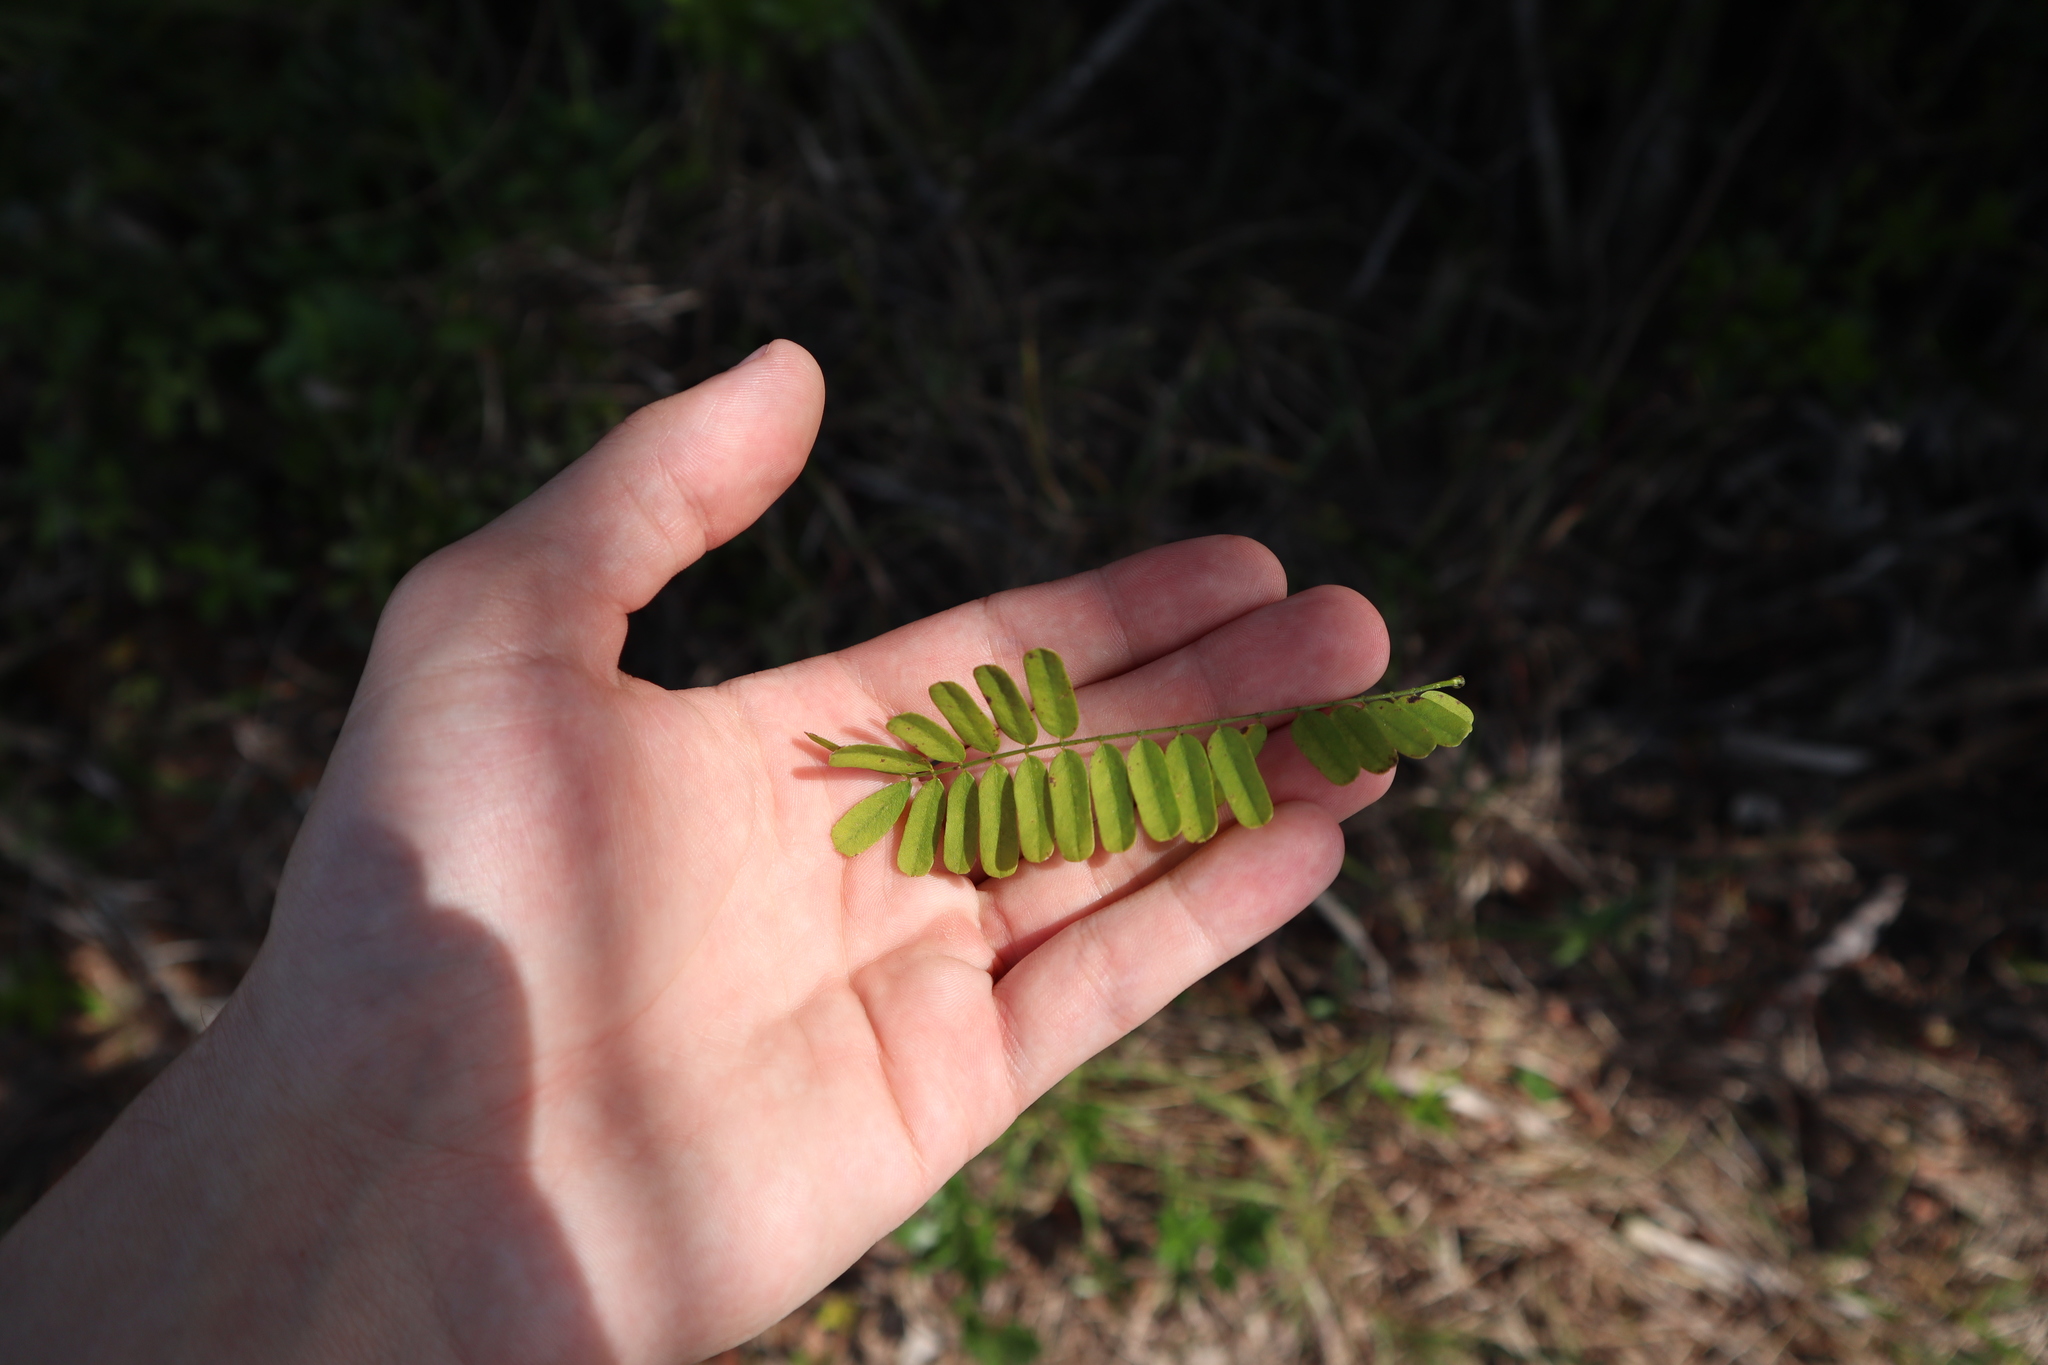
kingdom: Plantae
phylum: Tracheophyta
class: Magnoliopsida
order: Fabales
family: Fabaceae
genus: Abrus
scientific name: Abrus precatorius
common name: Rosarypea
